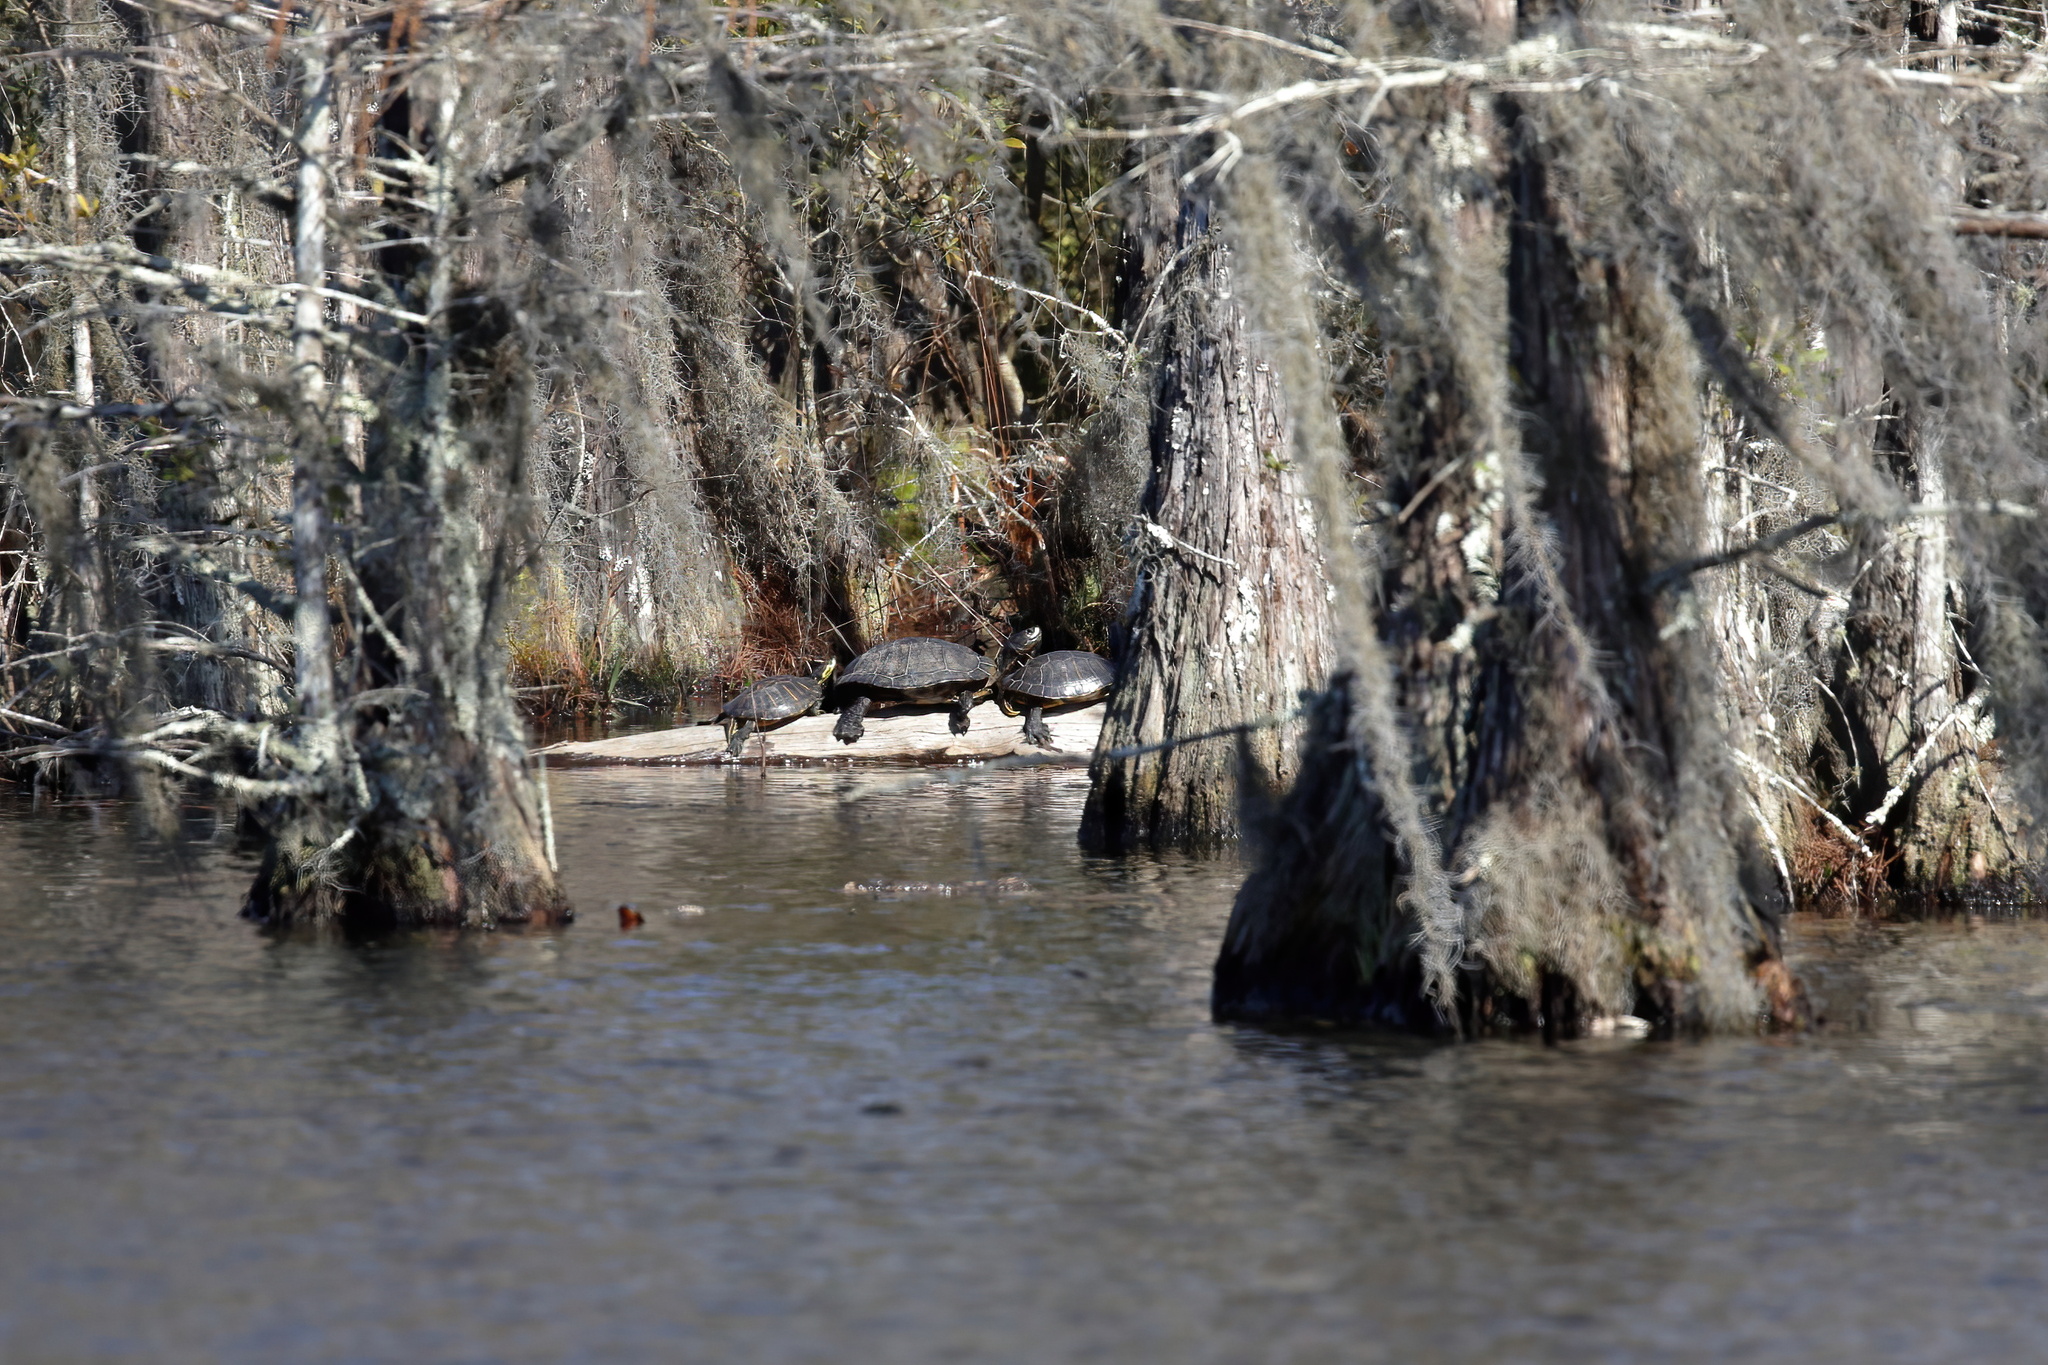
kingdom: Animalia
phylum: Chordata
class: Testudines
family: Emydidae
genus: Trachemys
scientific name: Trachemys scripta
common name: Slider
